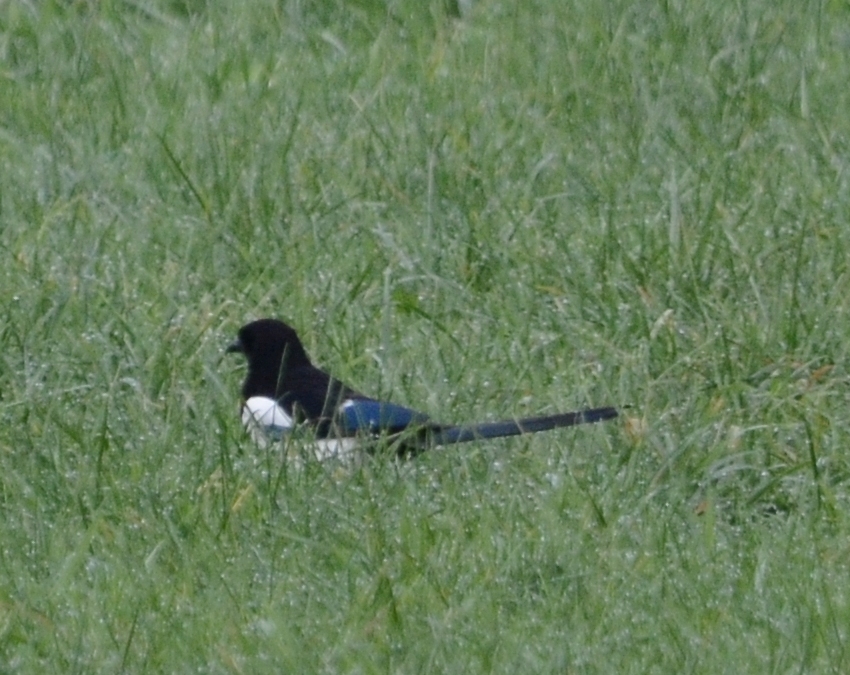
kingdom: Animalia
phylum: Chordata
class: Aves
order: Passeriformes
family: Corvidae
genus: Pica
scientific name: Pica pica
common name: Eurasian magpie
